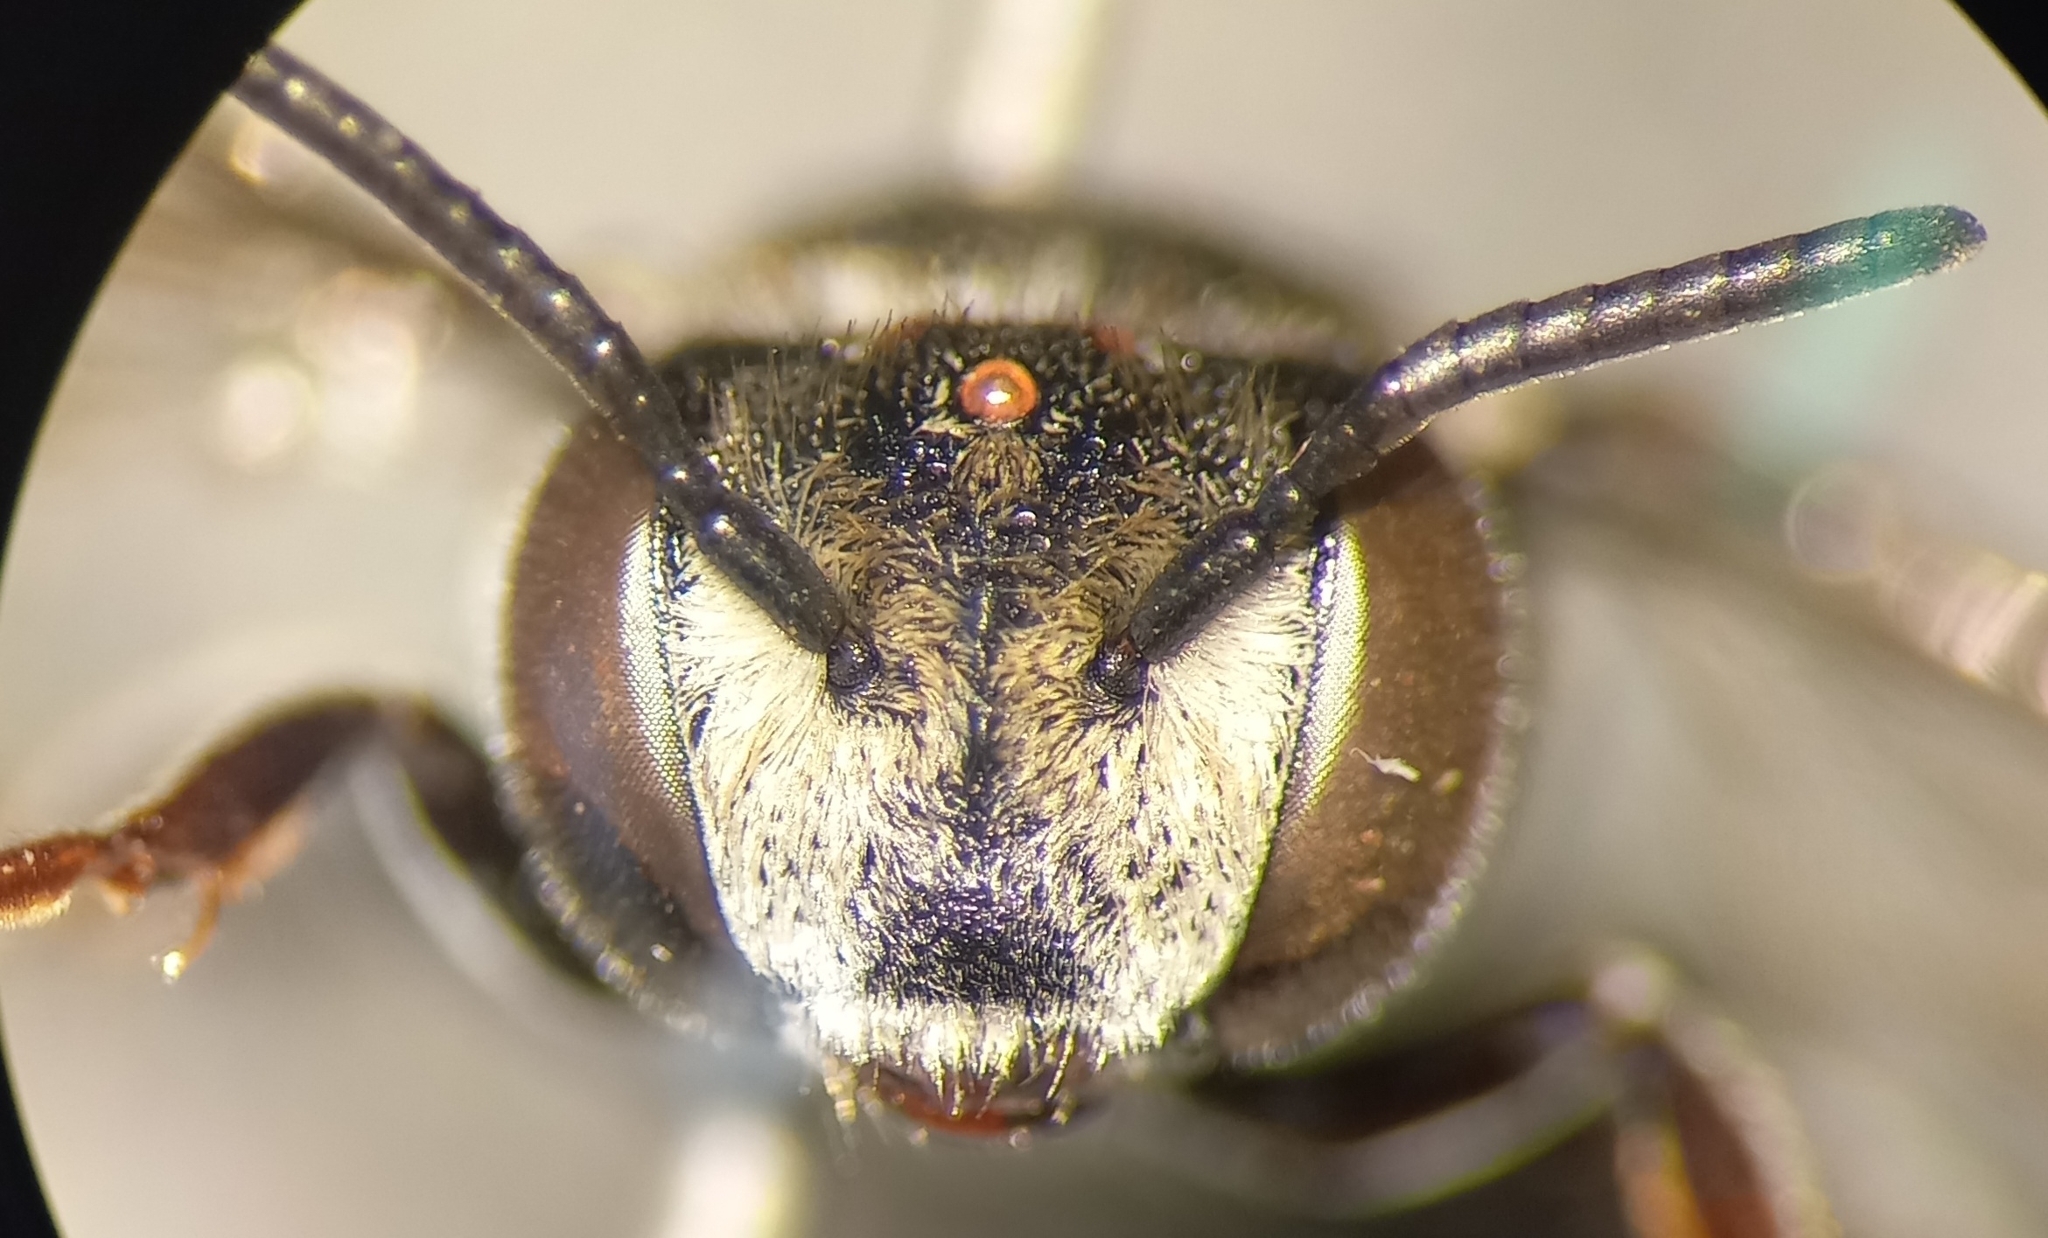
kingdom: Animalia
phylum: Arthropoda
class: Insecta
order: Hymenoptera
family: Megachilidae
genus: Coelioxys
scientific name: Coelioxys afra
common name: Short sharp-tail bee
